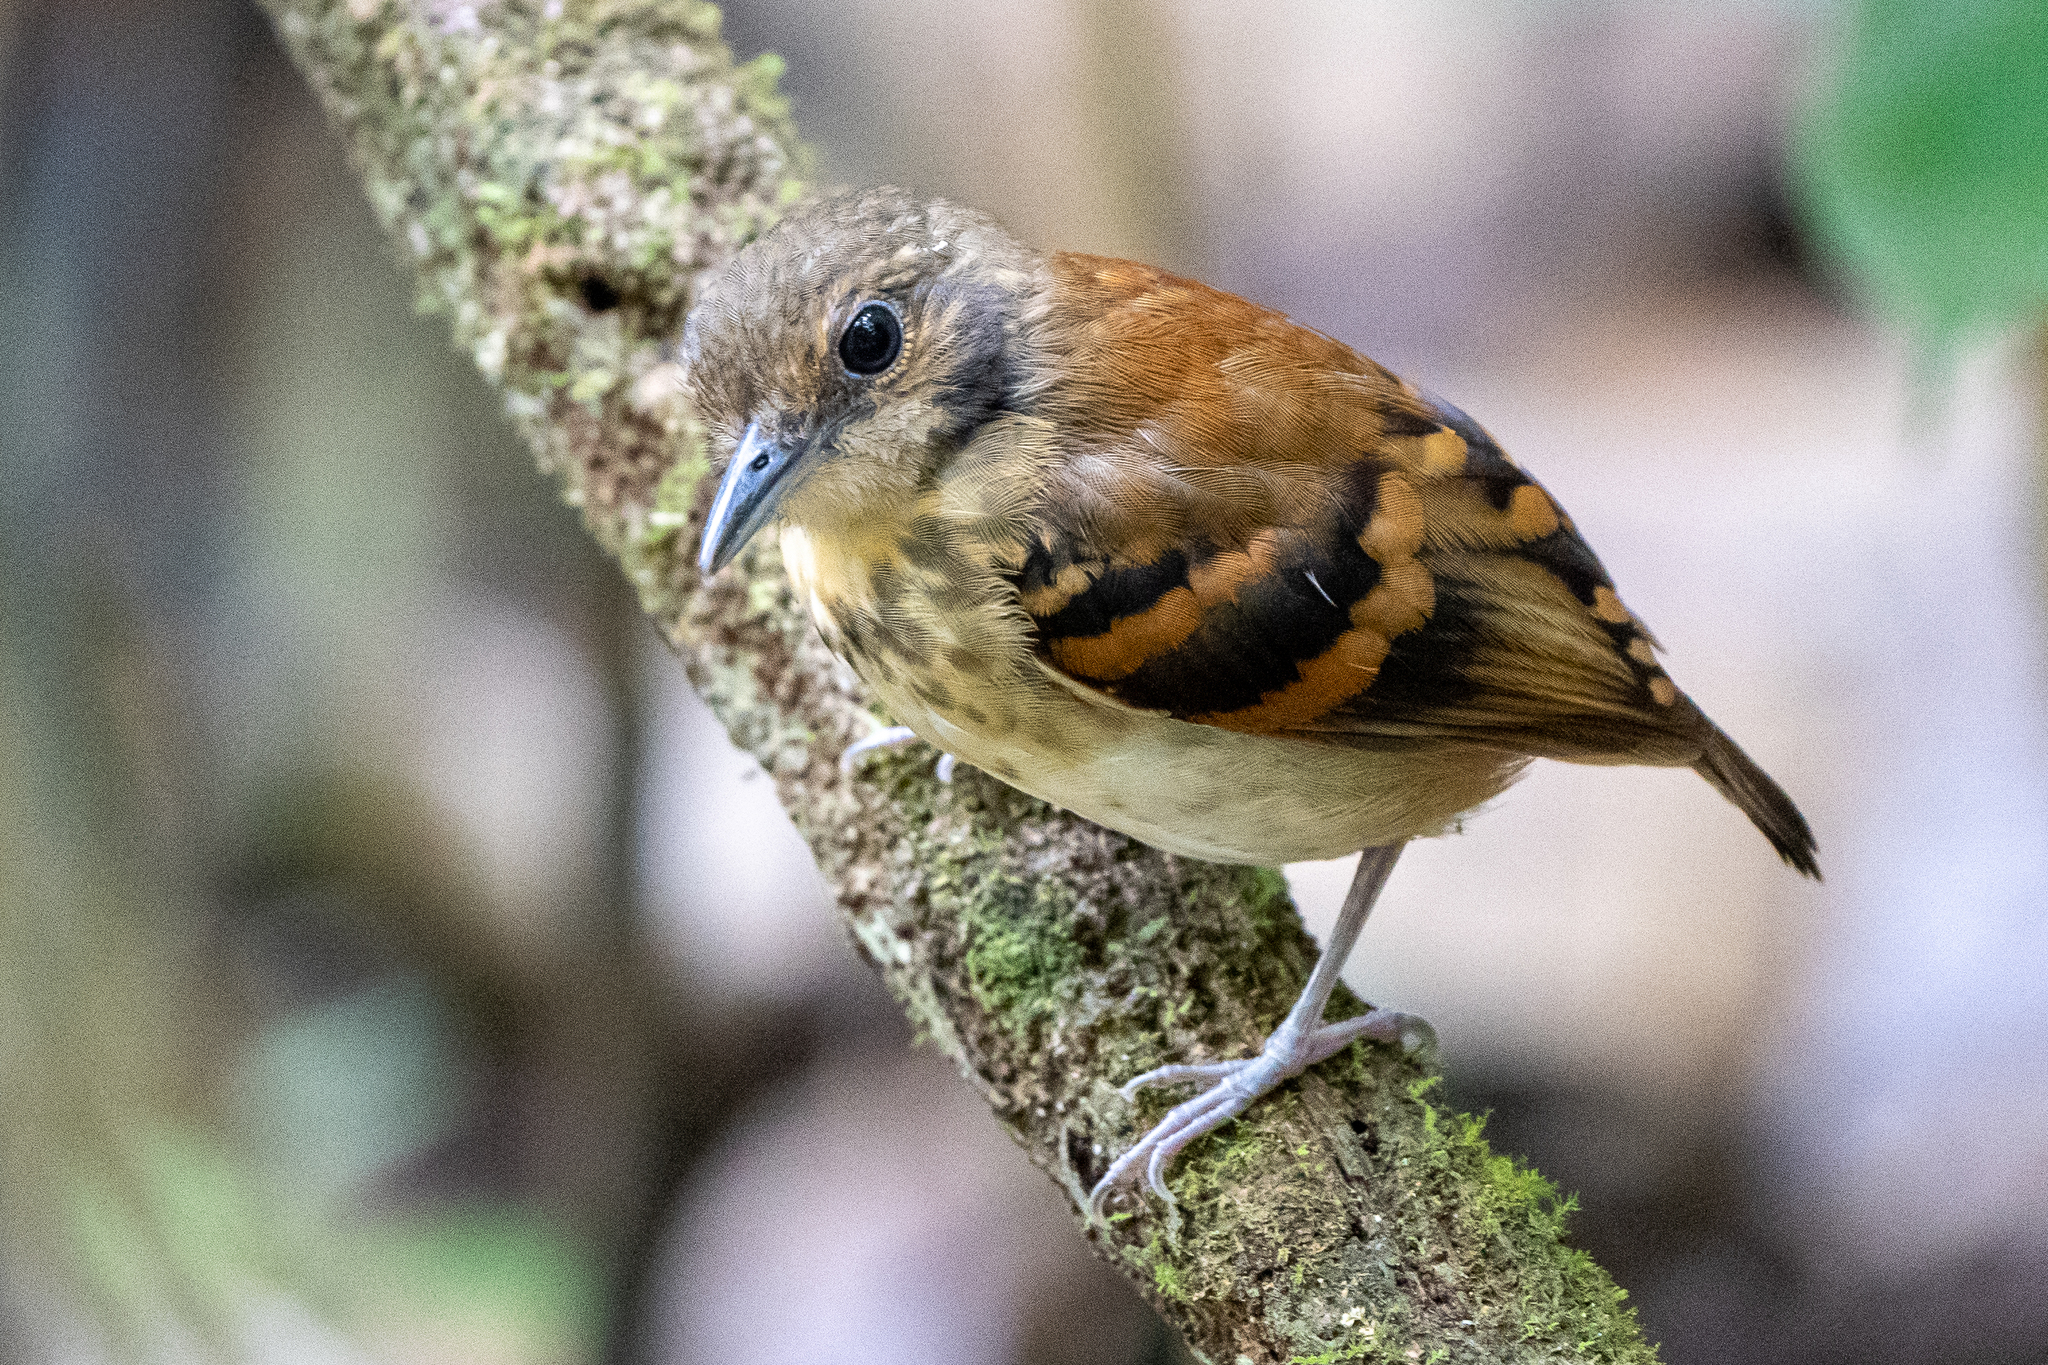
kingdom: Animalia
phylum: Chordata
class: Aves
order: Passeriformes
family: Thamnophilidae
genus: Hylophylax
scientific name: Hylophylax naevioides
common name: Spotted antbird
